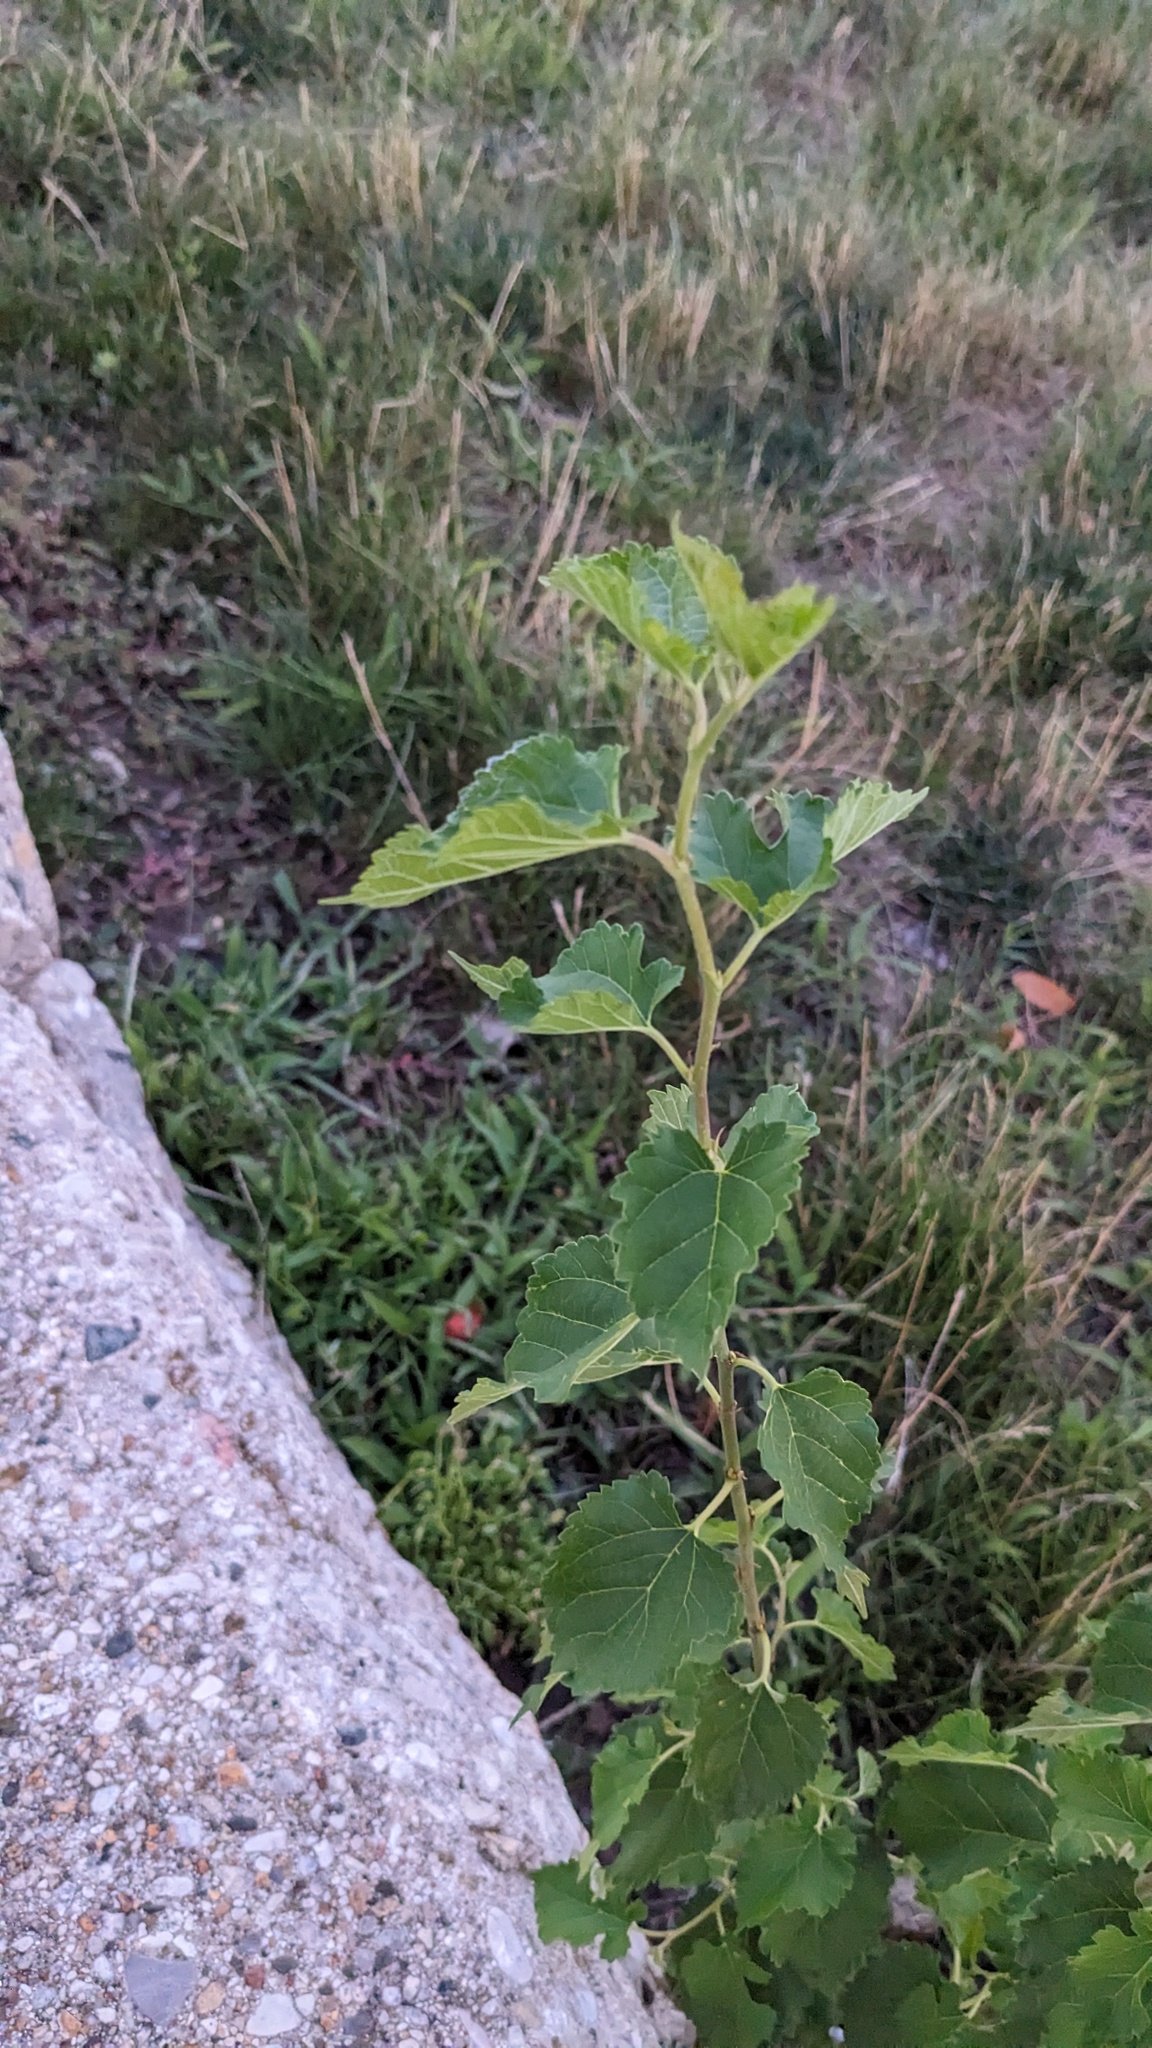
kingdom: Plantae
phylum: Tracheophyta
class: Magnoliopsida
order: Rosales
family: Moraceae
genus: Morus
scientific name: Morus alba
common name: White mulberry
